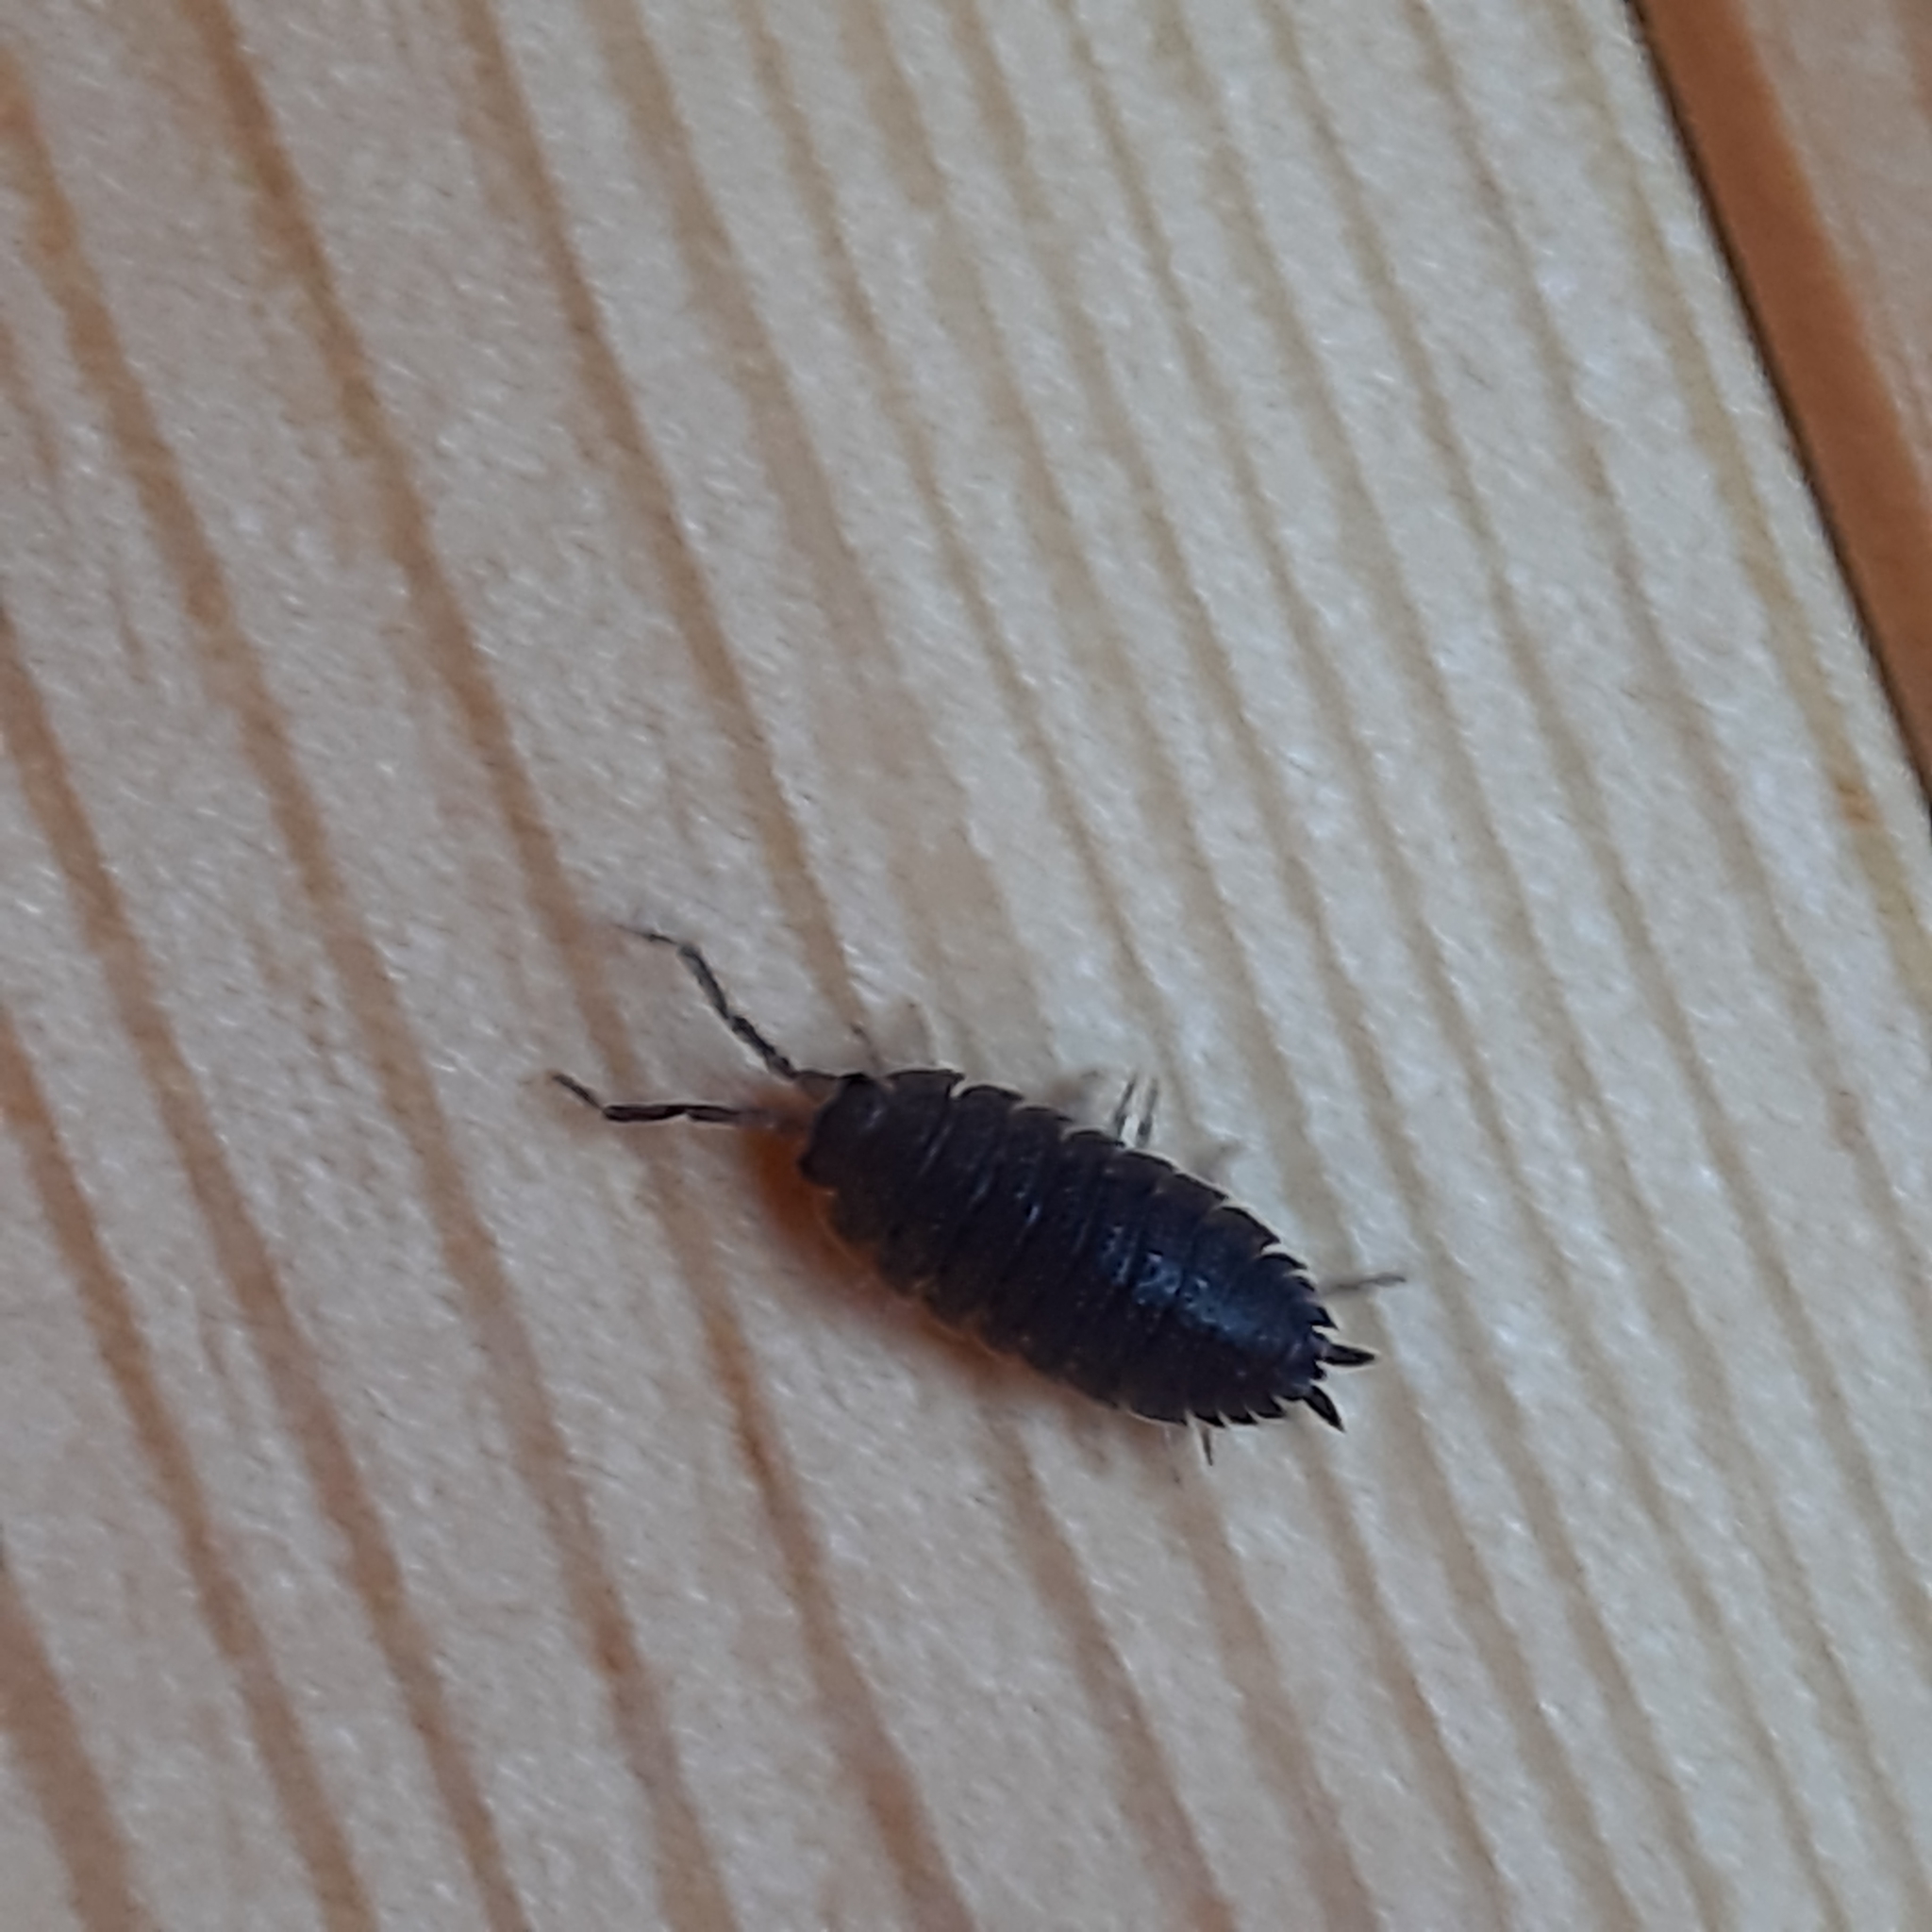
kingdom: Animalia
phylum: Arthropoda
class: Malacostraca
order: Isopoda
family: Porcellionidae
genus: Porcellio
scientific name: Porcellio scaber
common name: Common rough woodlouse
